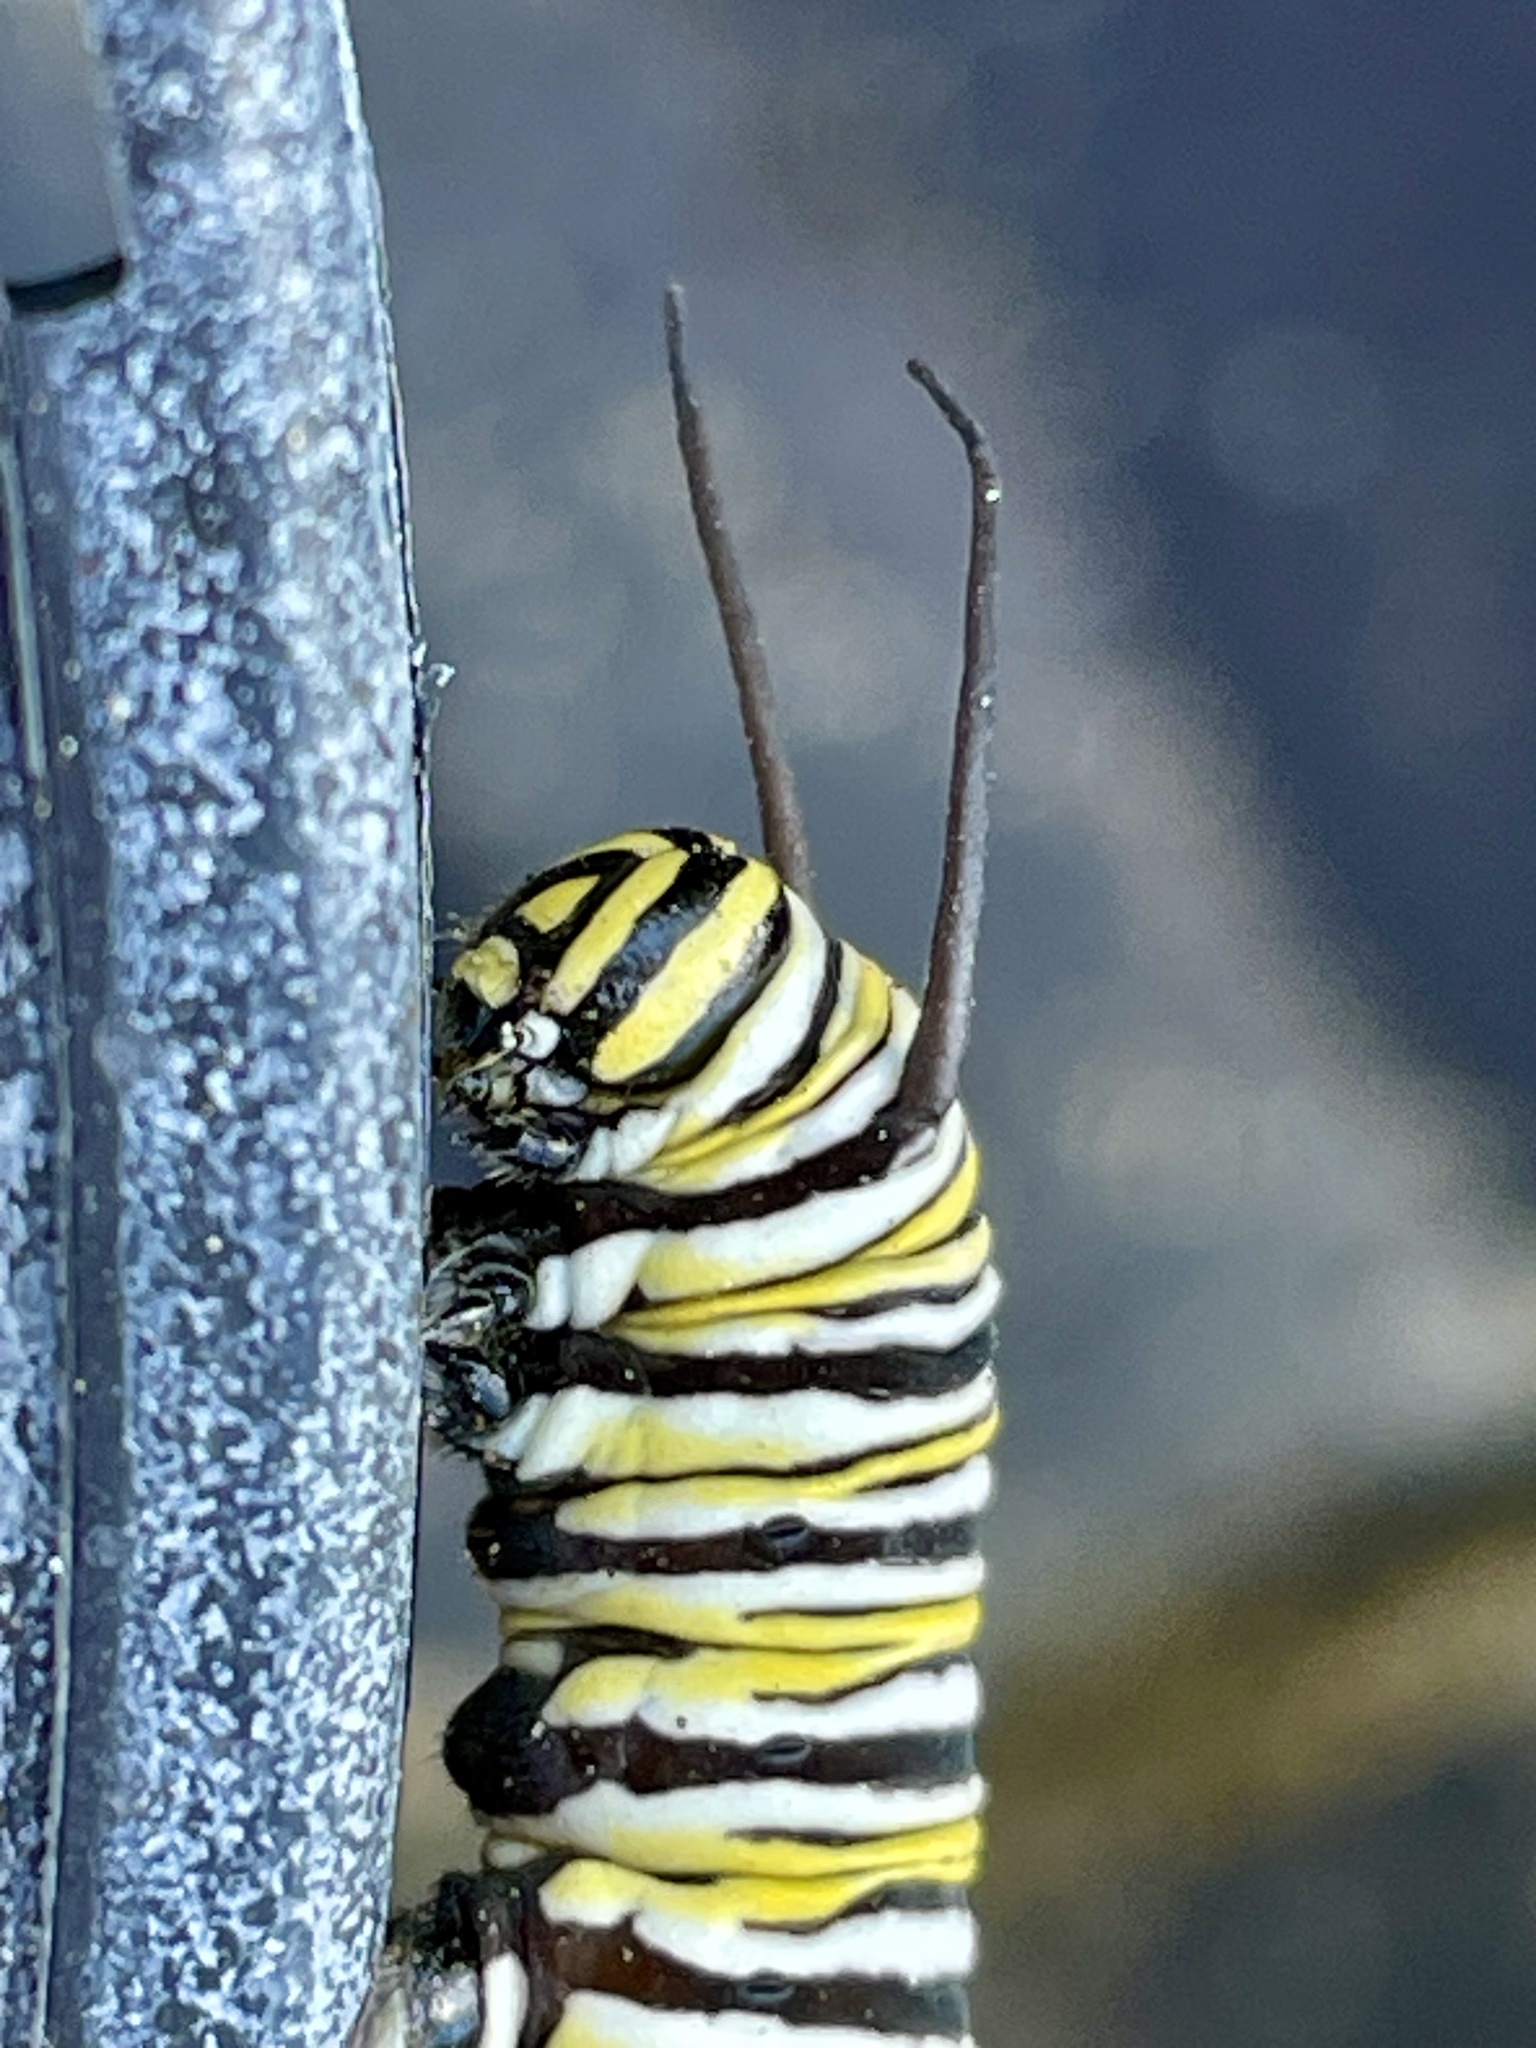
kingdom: Animalia
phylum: Arthropoda
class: Insecta
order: Lepidoptera
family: Nymphalidae
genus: Danaus
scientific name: Danaus plexippus
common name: Monarch
